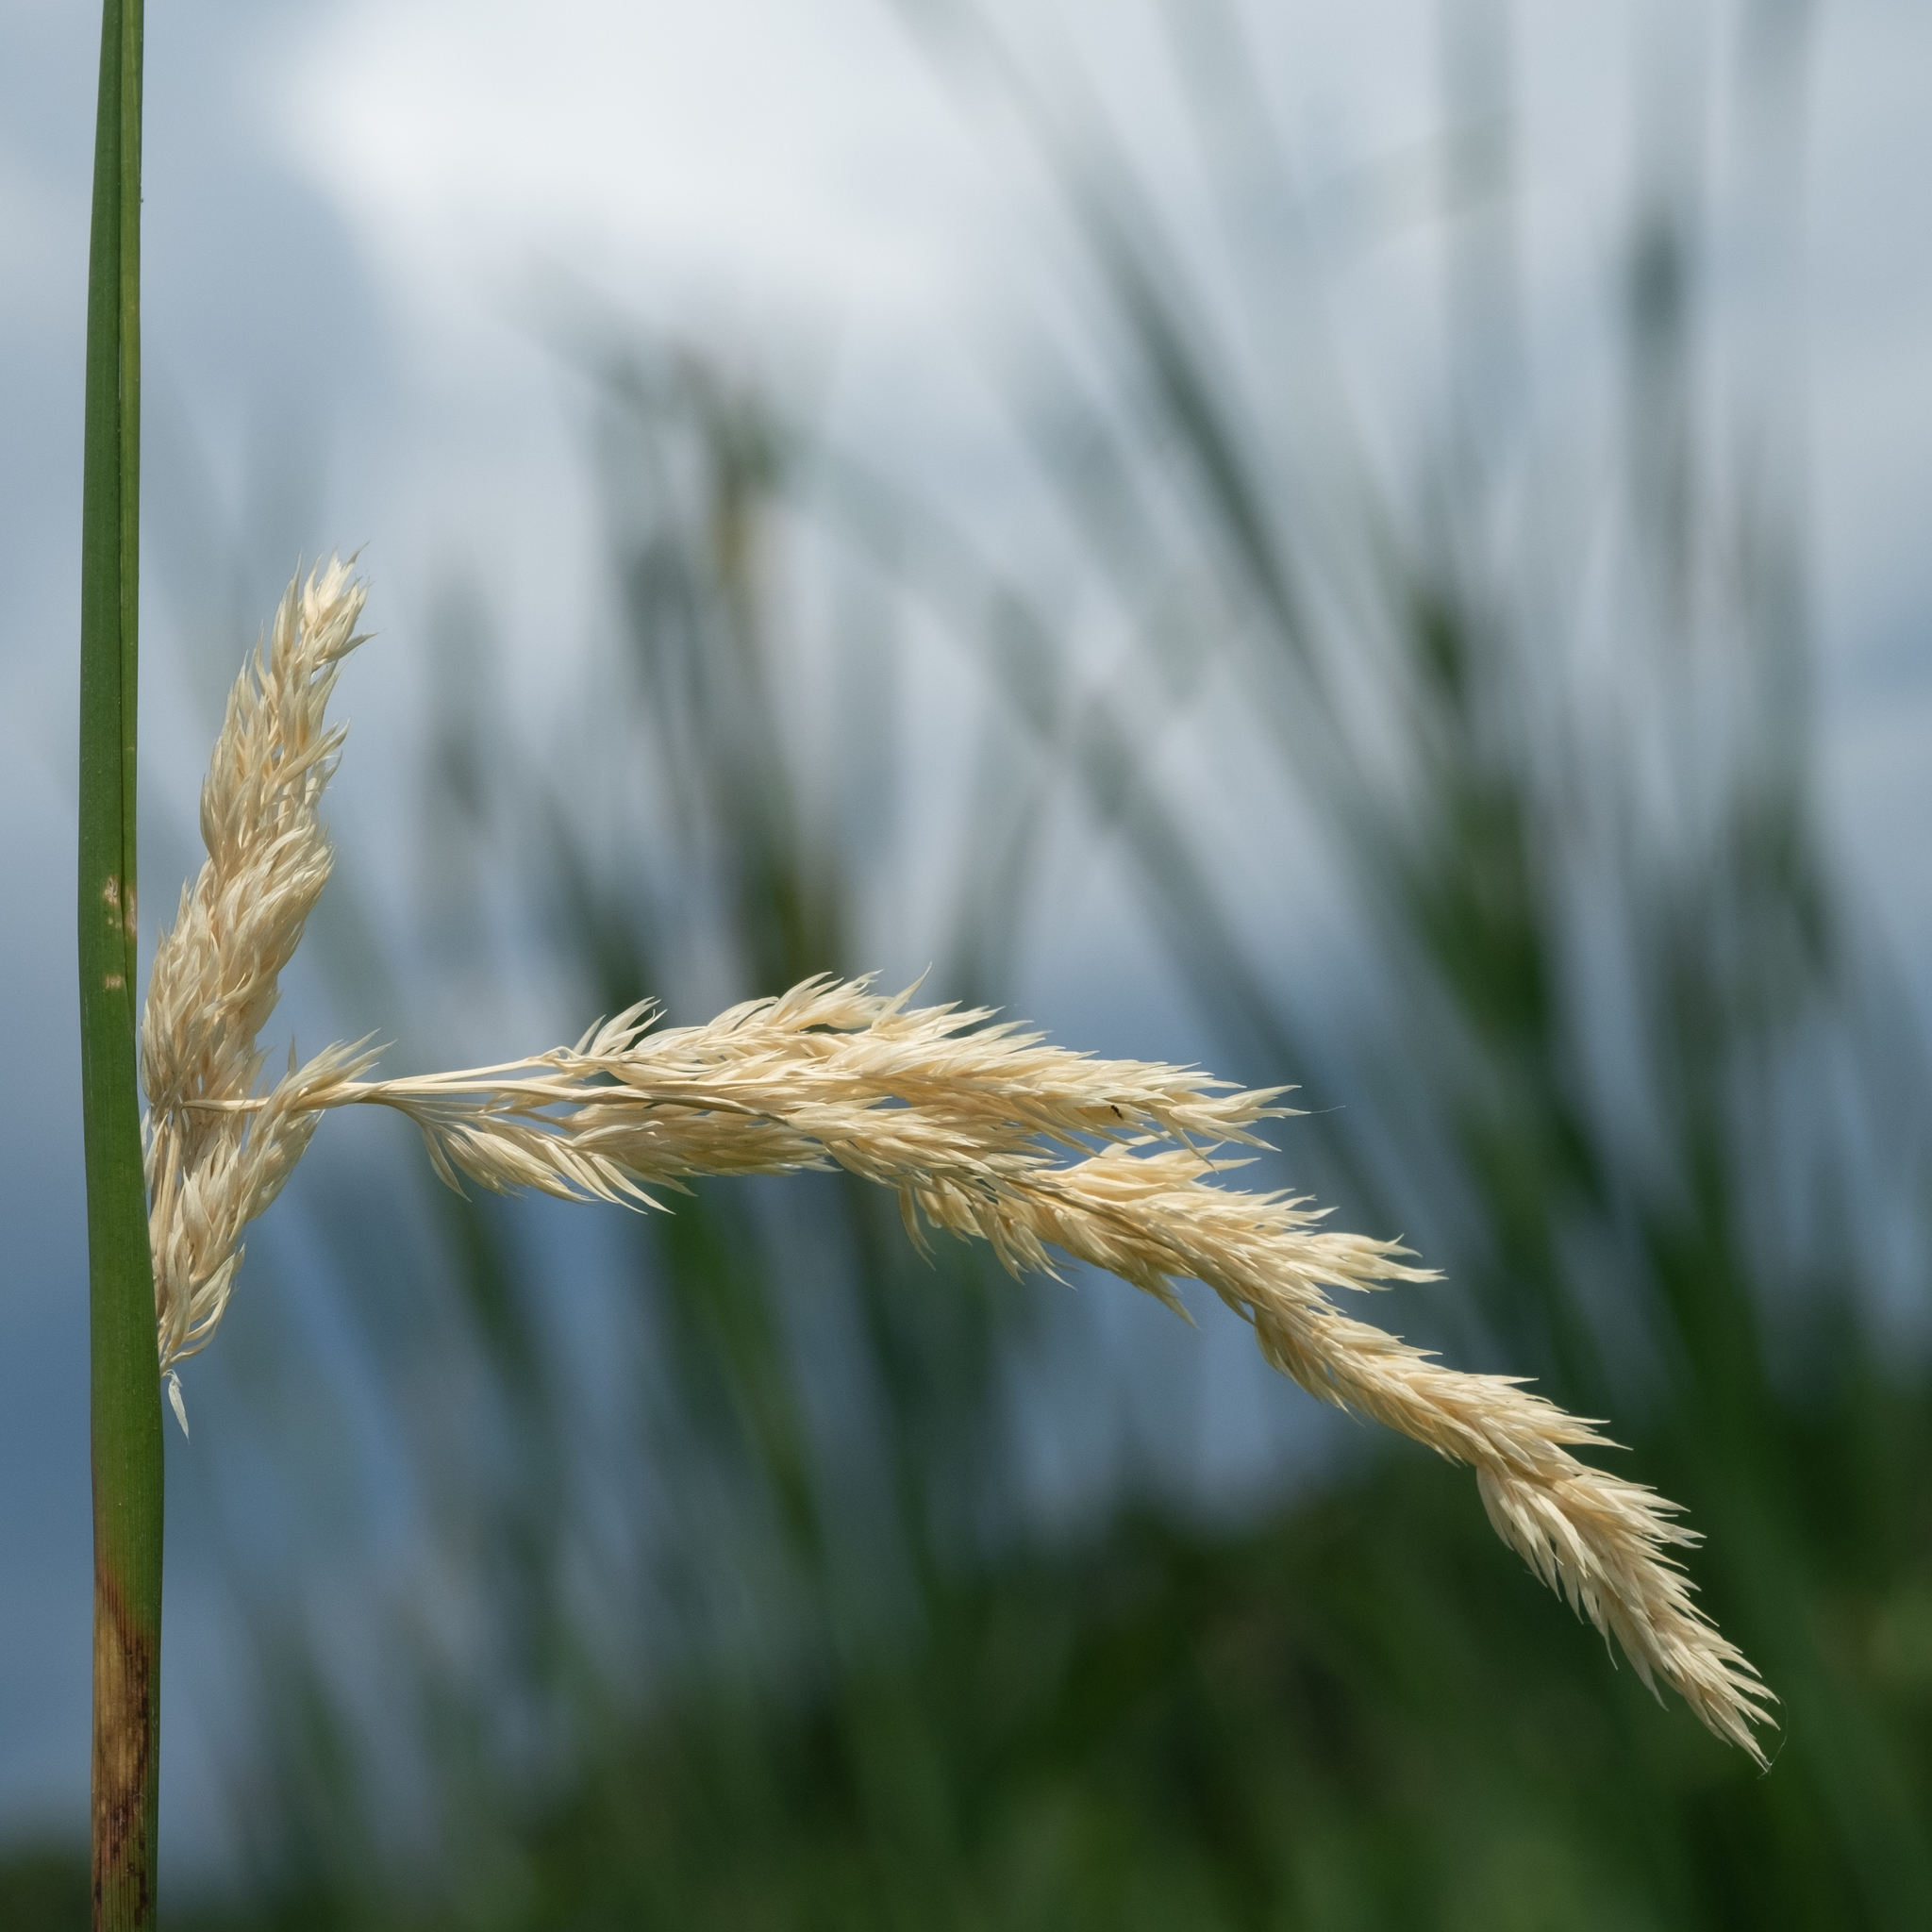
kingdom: Plantae
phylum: Tracheophyta
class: Liliopsida
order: Poales
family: Poaceae
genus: Phalaris
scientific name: Phalaris arundinacea
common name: Reed canary-grass
